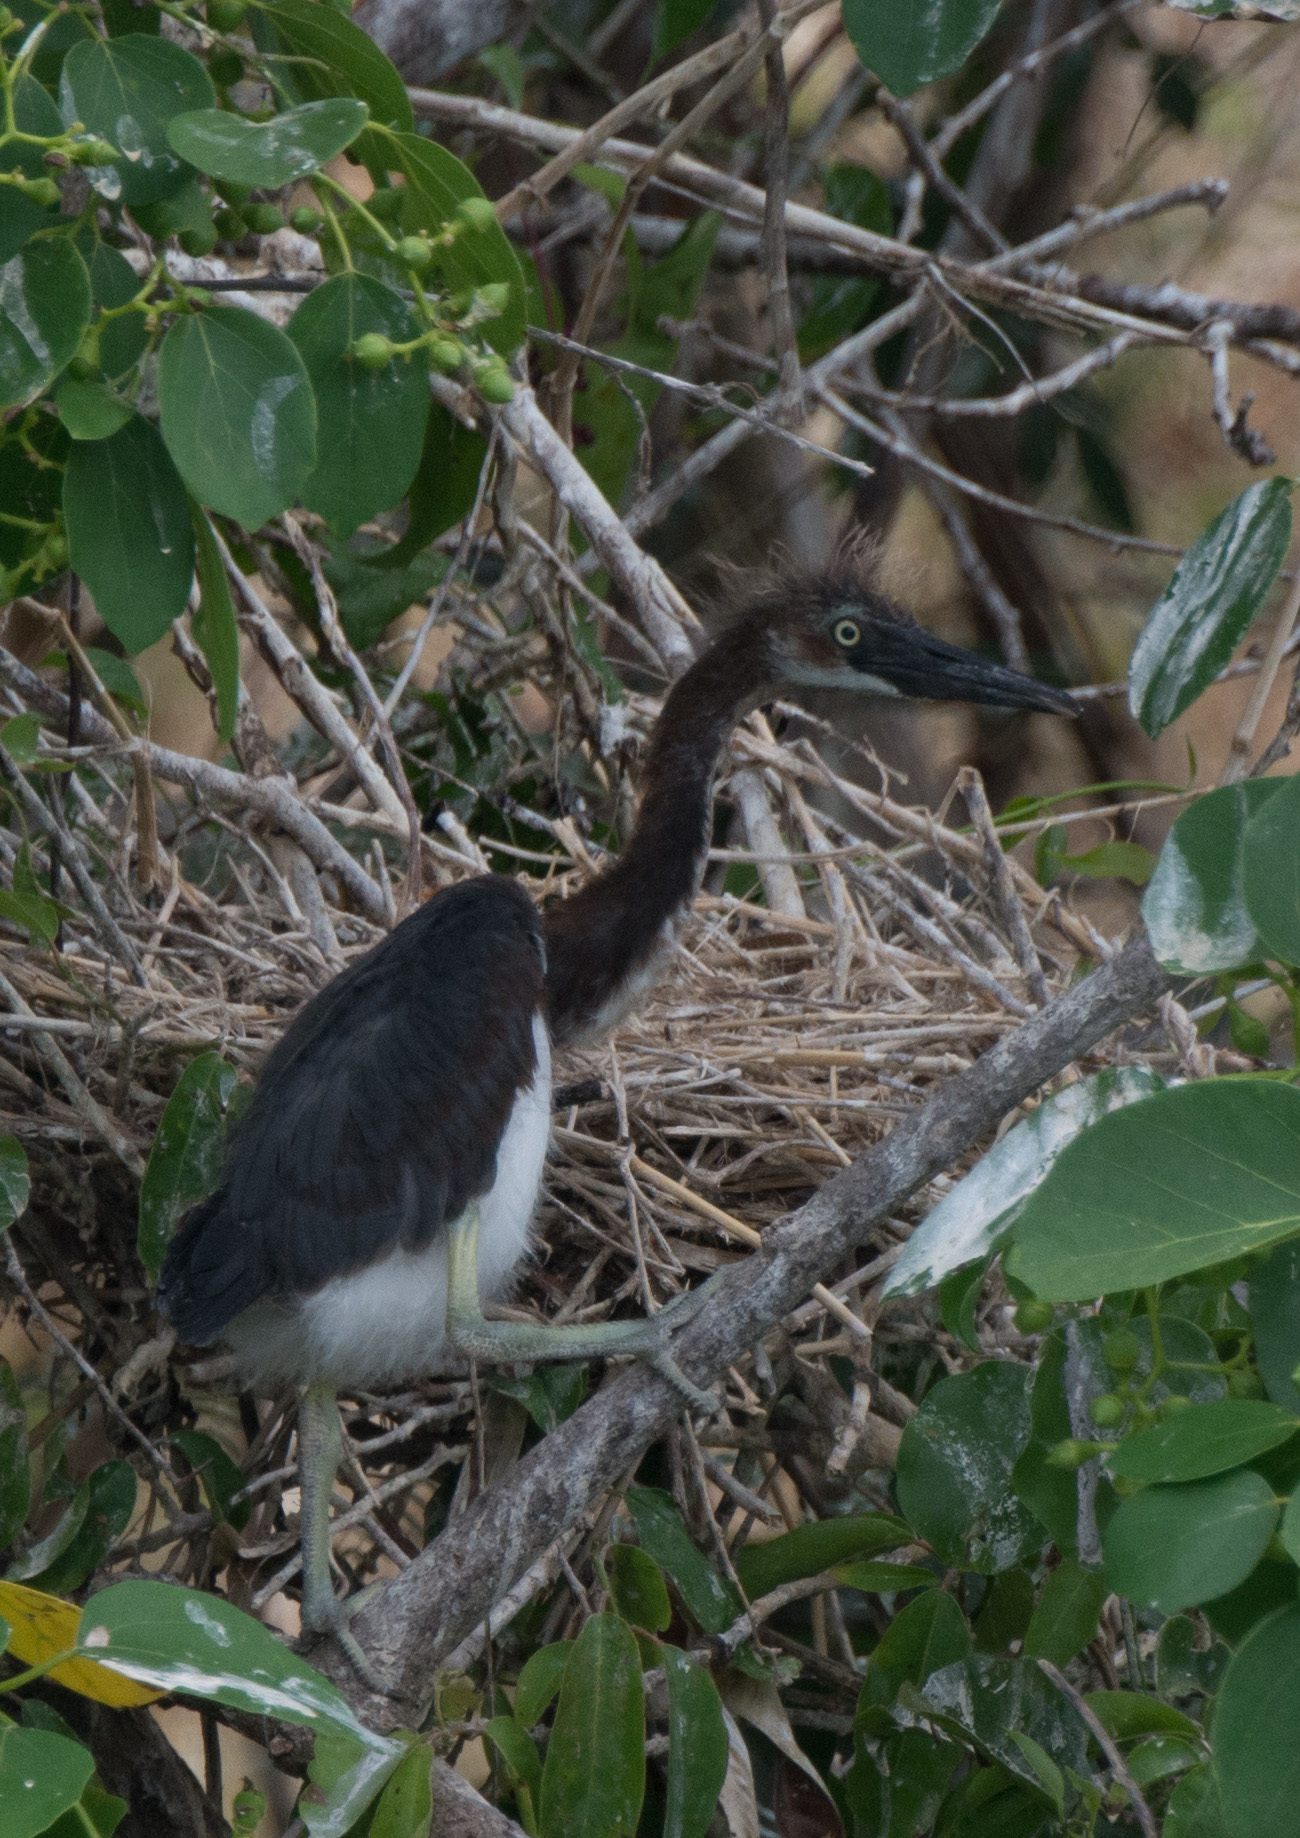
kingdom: Animalia
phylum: Chordata
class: Aves
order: Pelecaniformes
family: Ardeidae
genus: Egretta
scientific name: Egretta tricolor
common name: Tricolored heron
